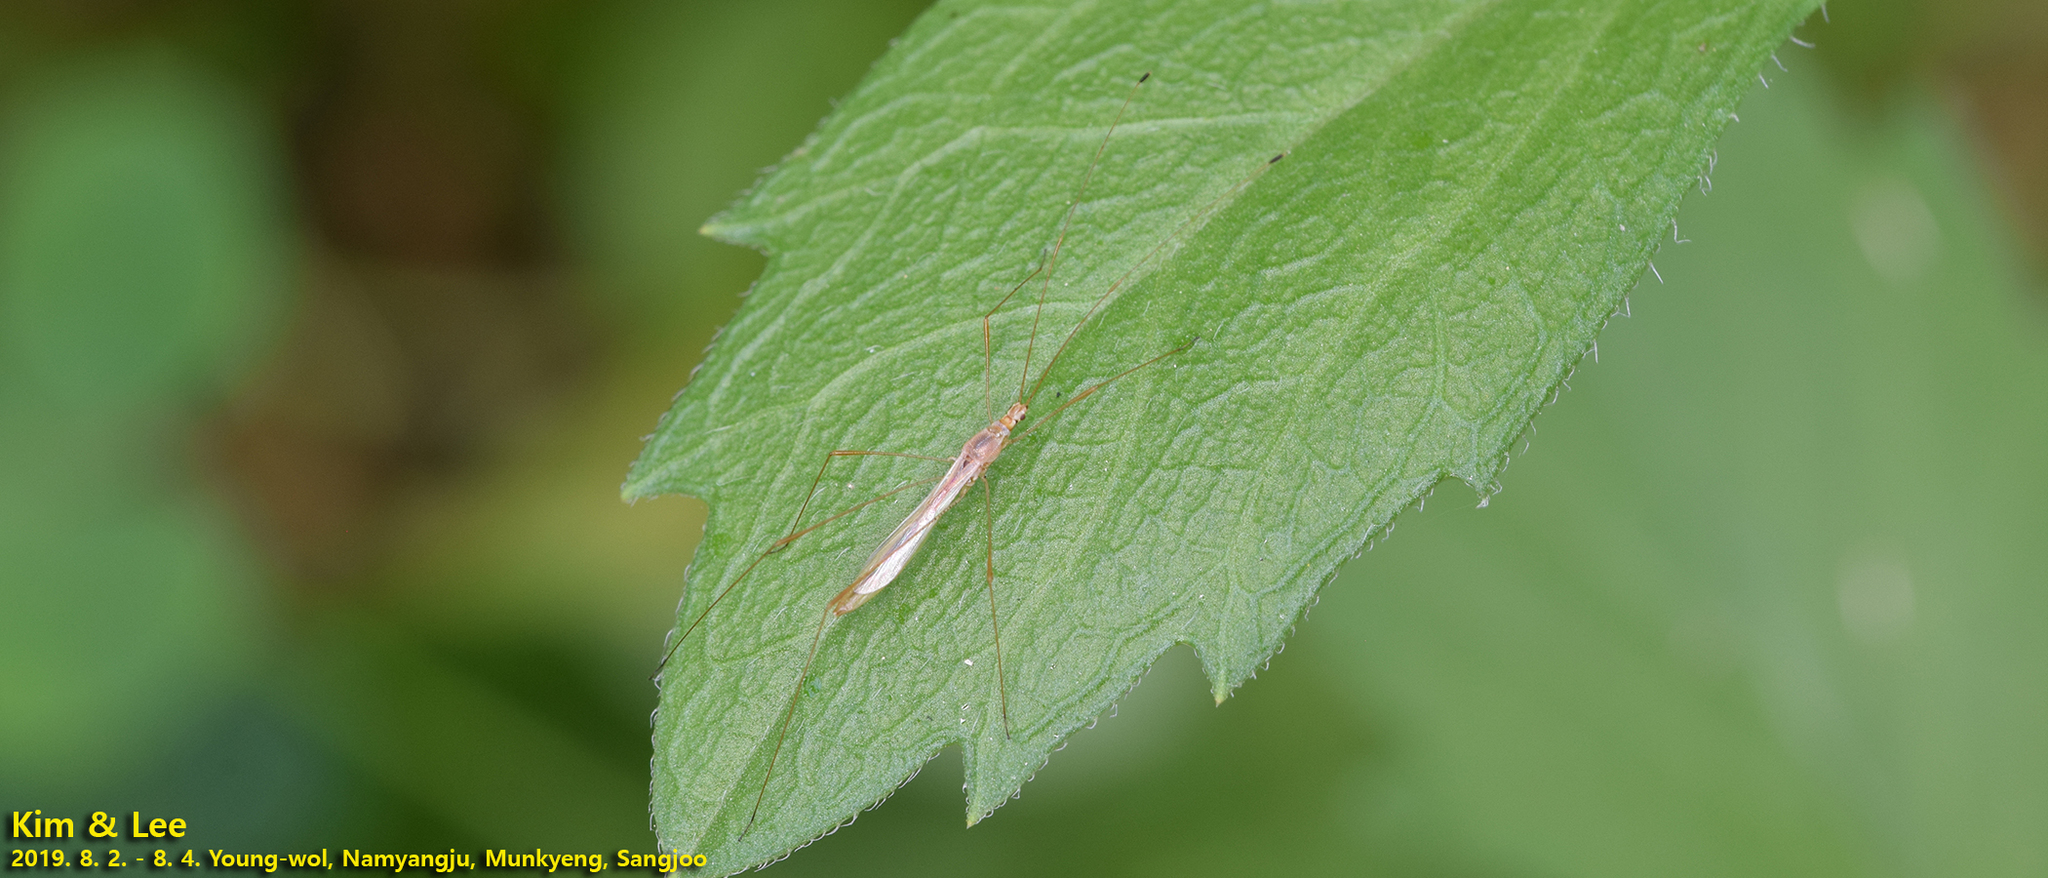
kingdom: Animalia
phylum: Arthropoda
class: Insecta
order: Hemiptera
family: Berytidae
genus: Yemma
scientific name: Yemma exilis
